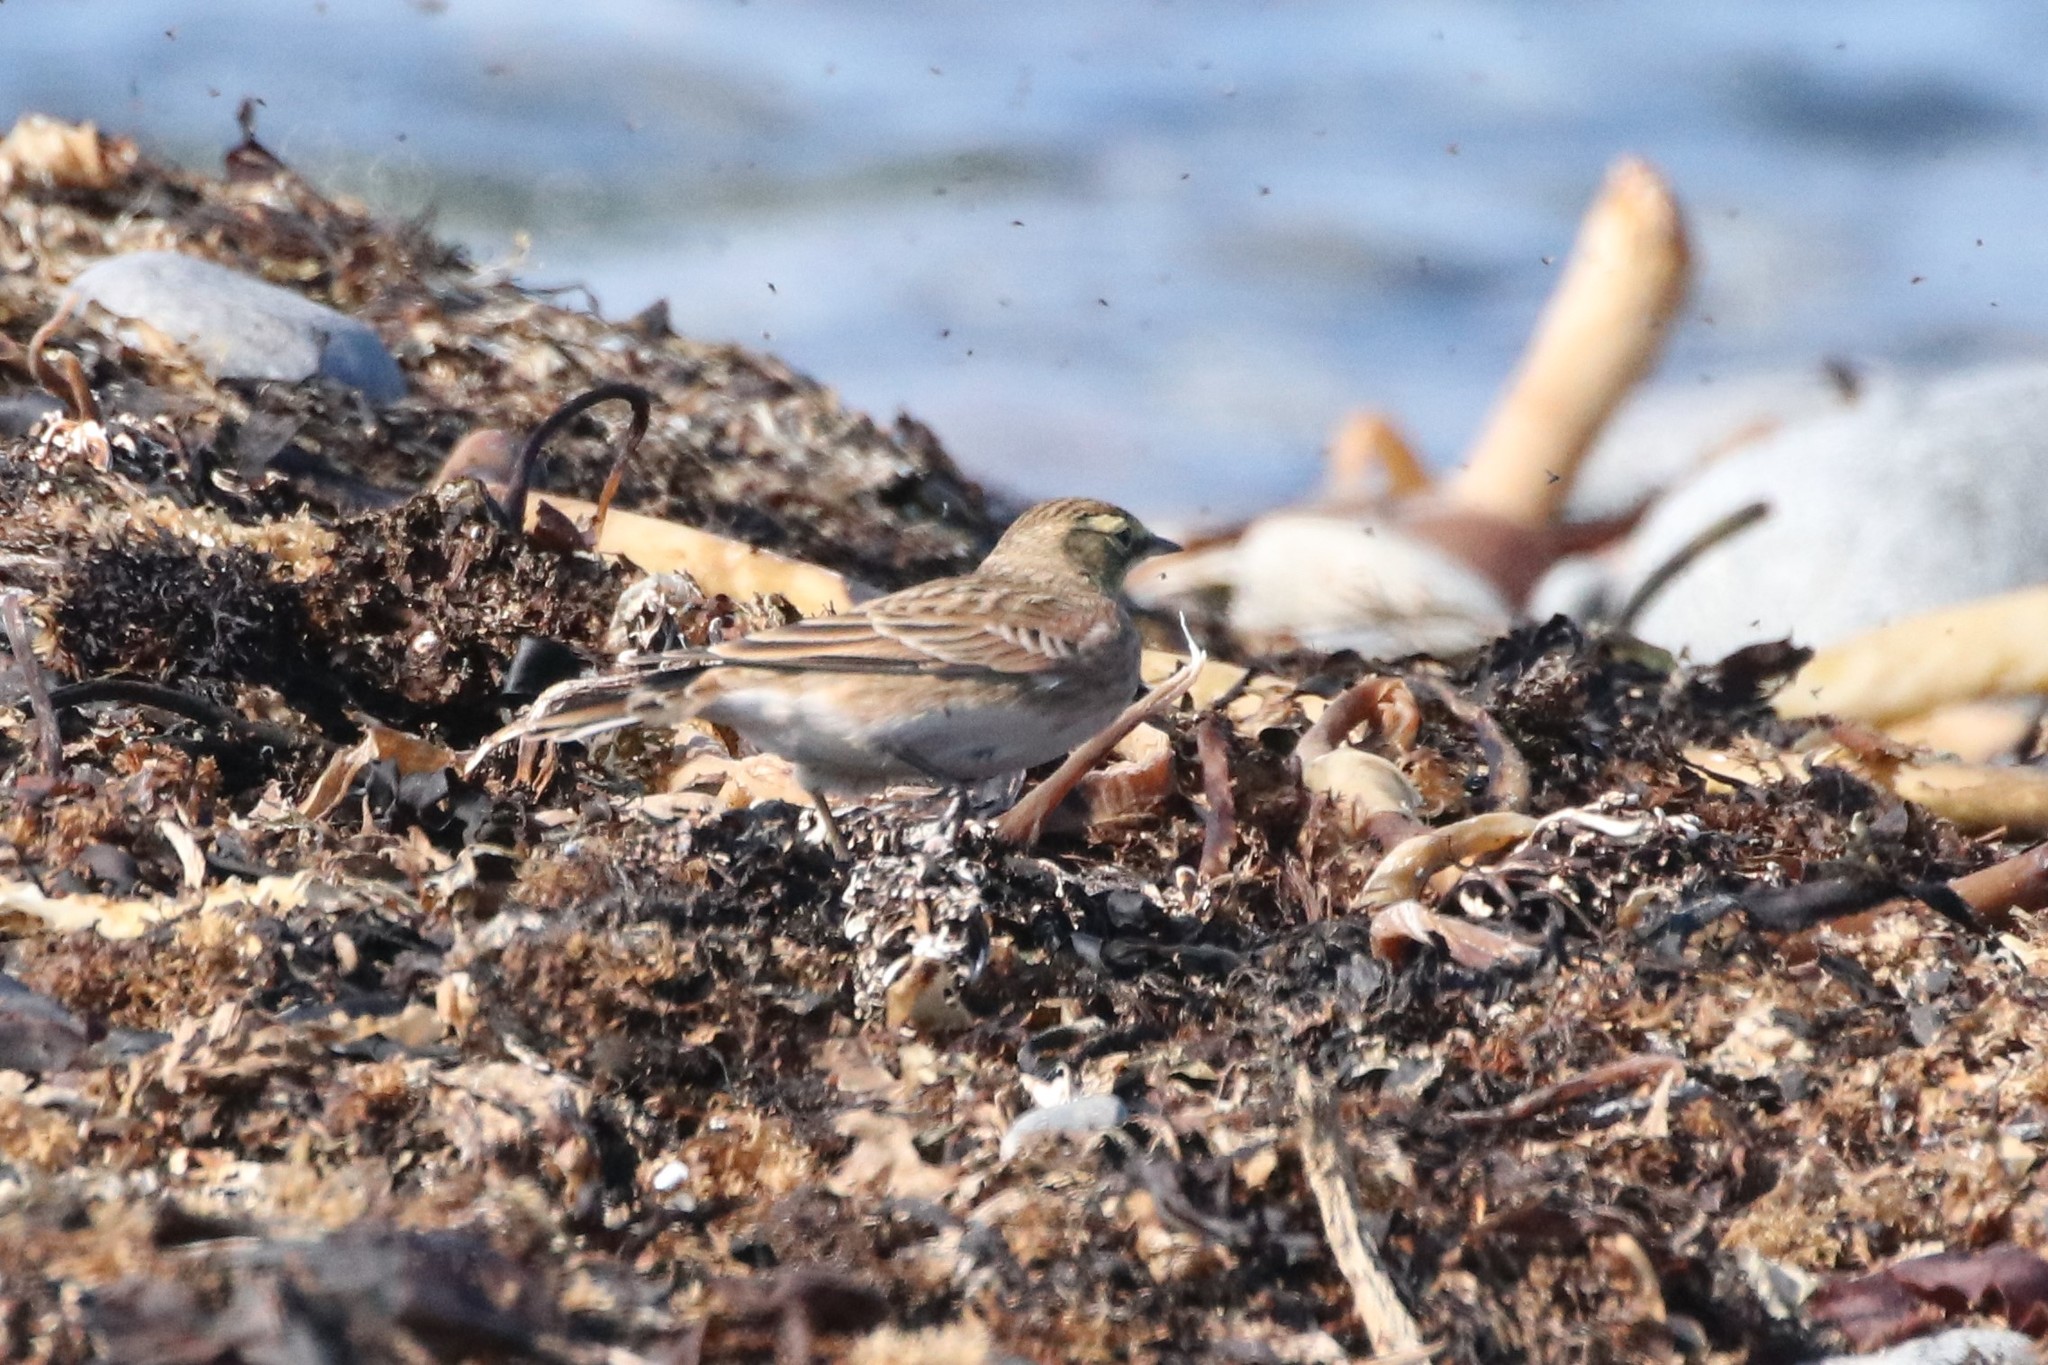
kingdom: Animalia
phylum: Chordata
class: Aves
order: Passeriformes
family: Alaudidae
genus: Eremophila
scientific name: Eremophila alpestris
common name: Horned lark
